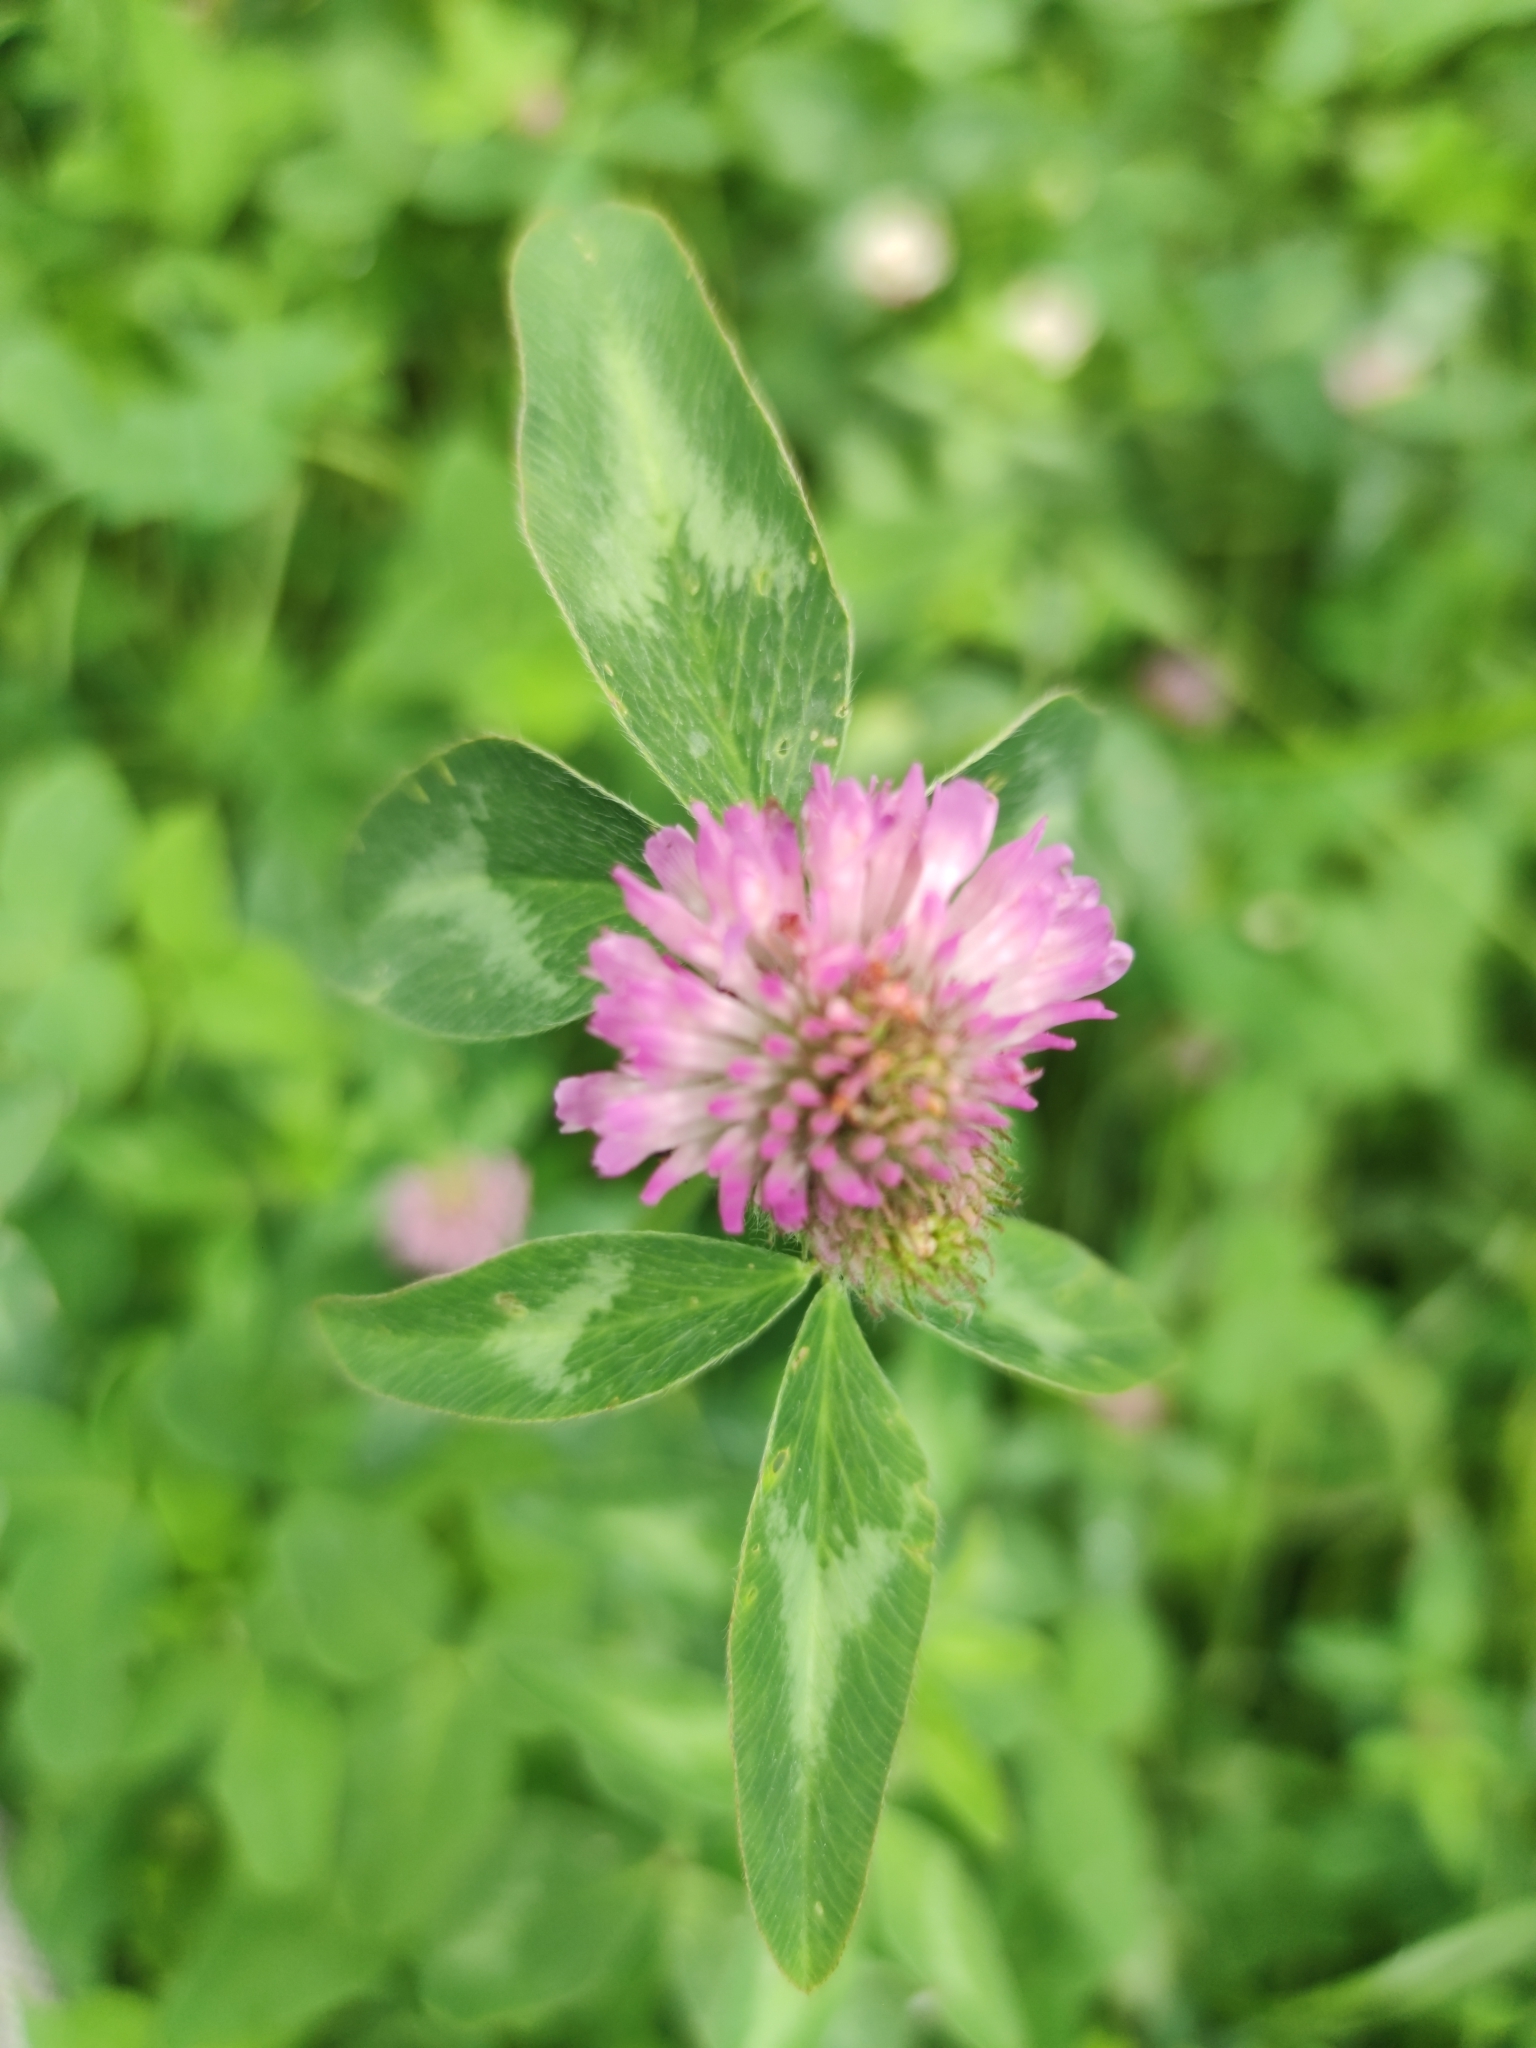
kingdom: Plantae
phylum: Tracheophyta
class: Magnoliopsida
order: Fabales
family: Fabaceae
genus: Trifolium
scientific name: Trifolium pratense
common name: Red clover
